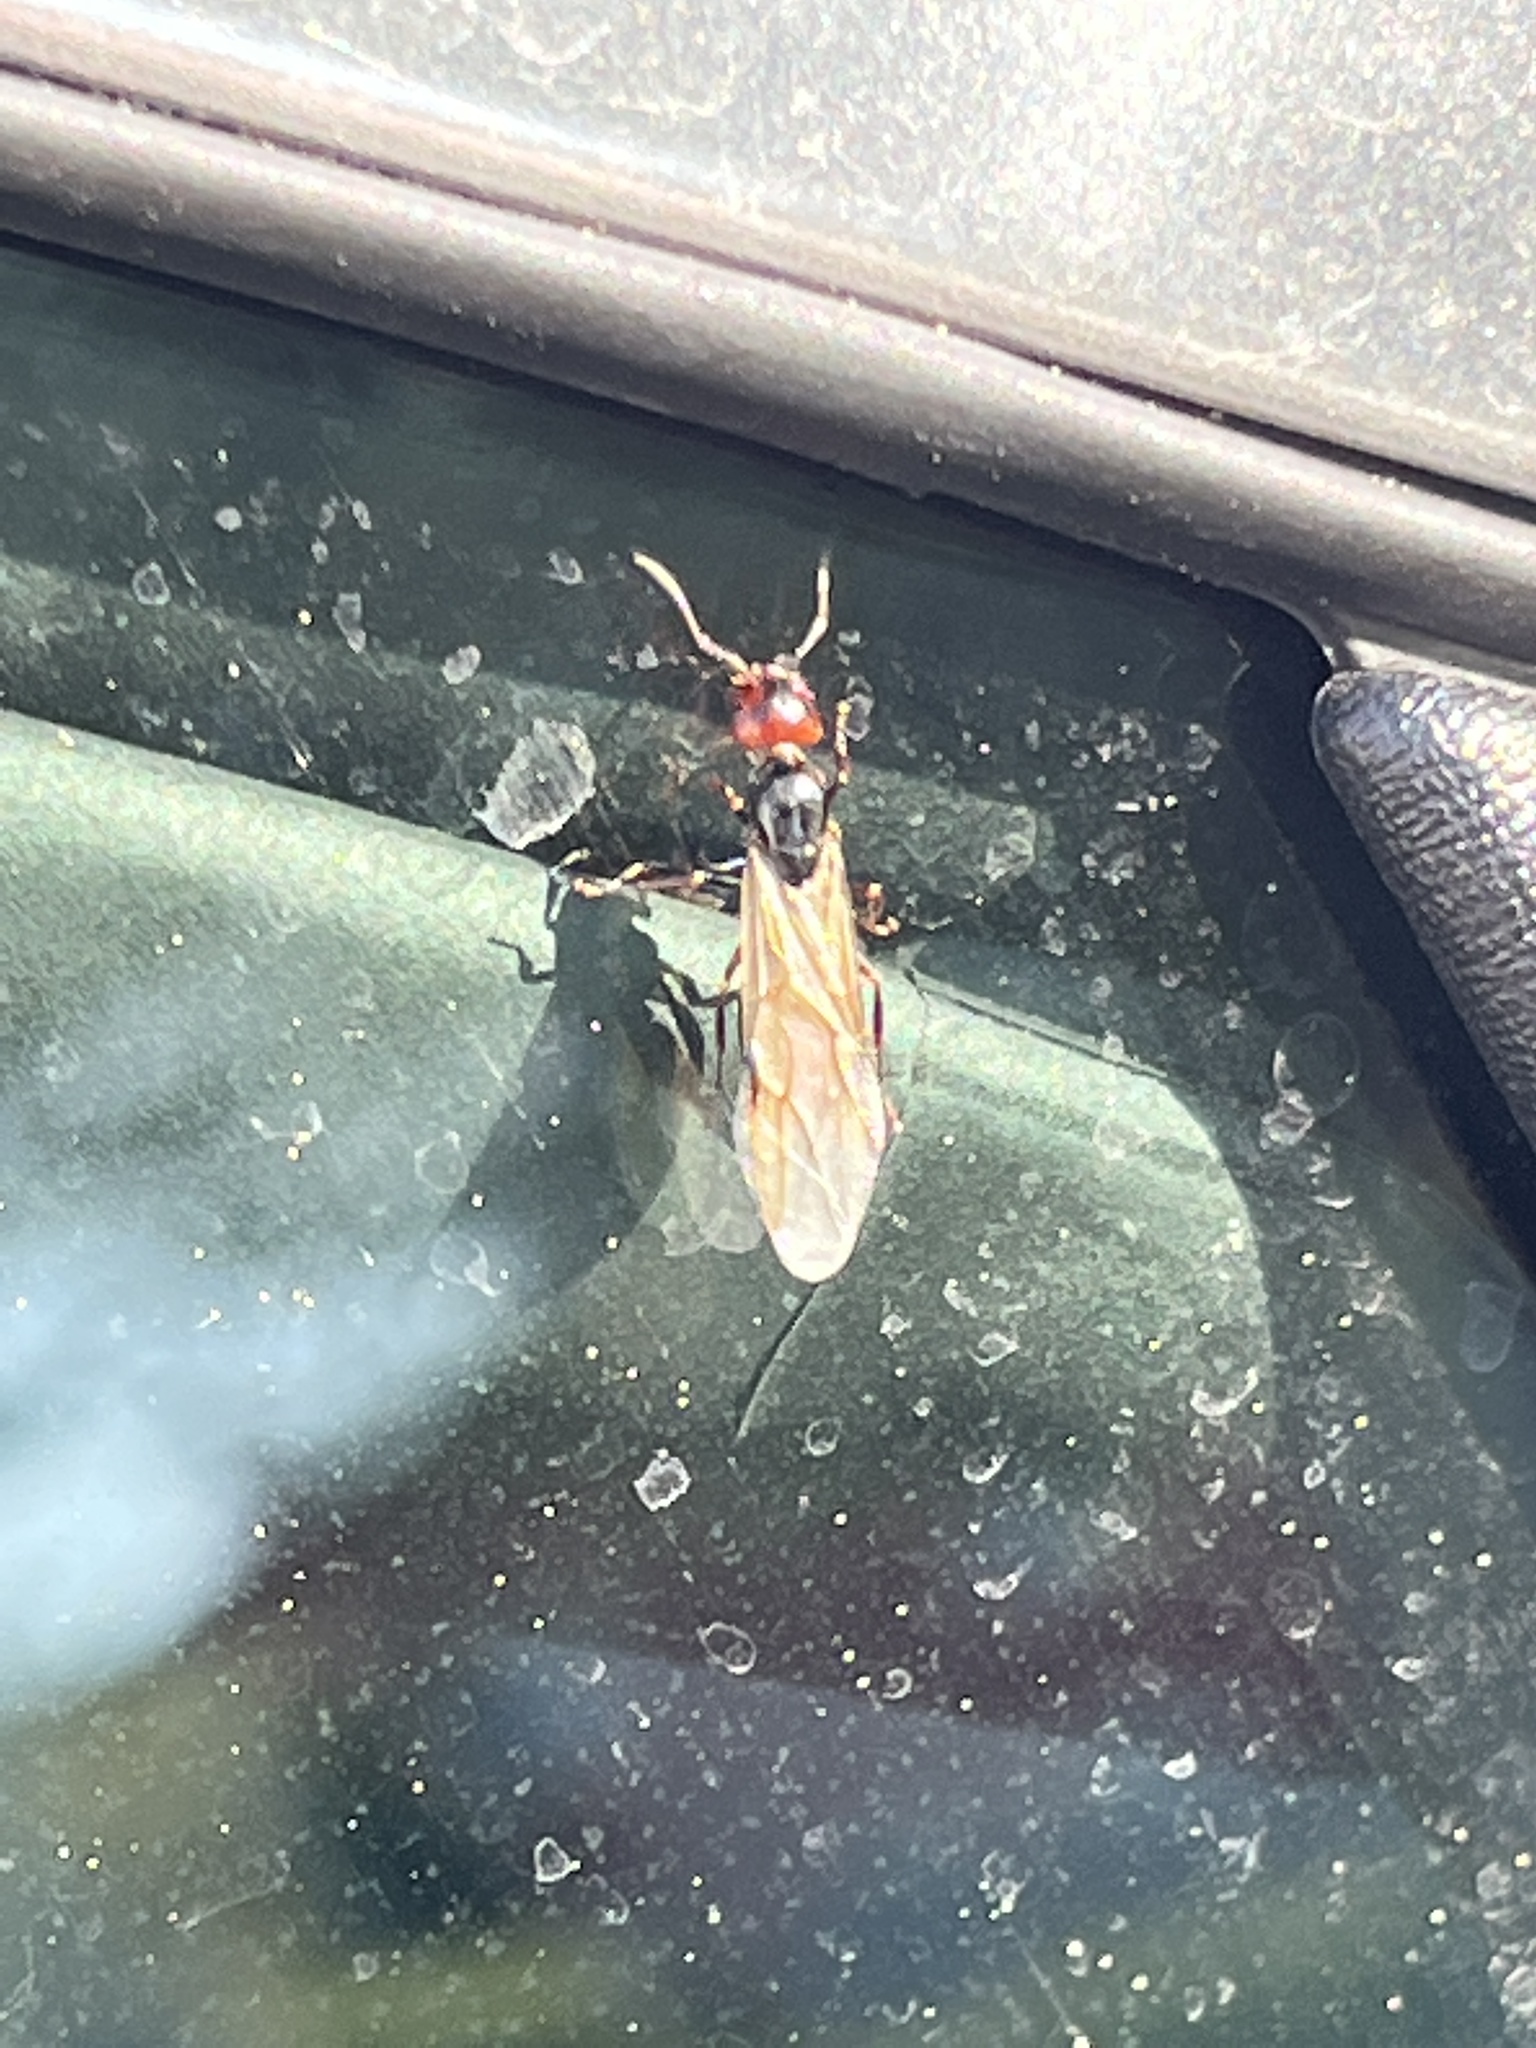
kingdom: Animalia
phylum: Arthropoda
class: Insecta
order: Hymenoptera
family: Formicidae
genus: Camponotus
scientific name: Camponotus lateralis
